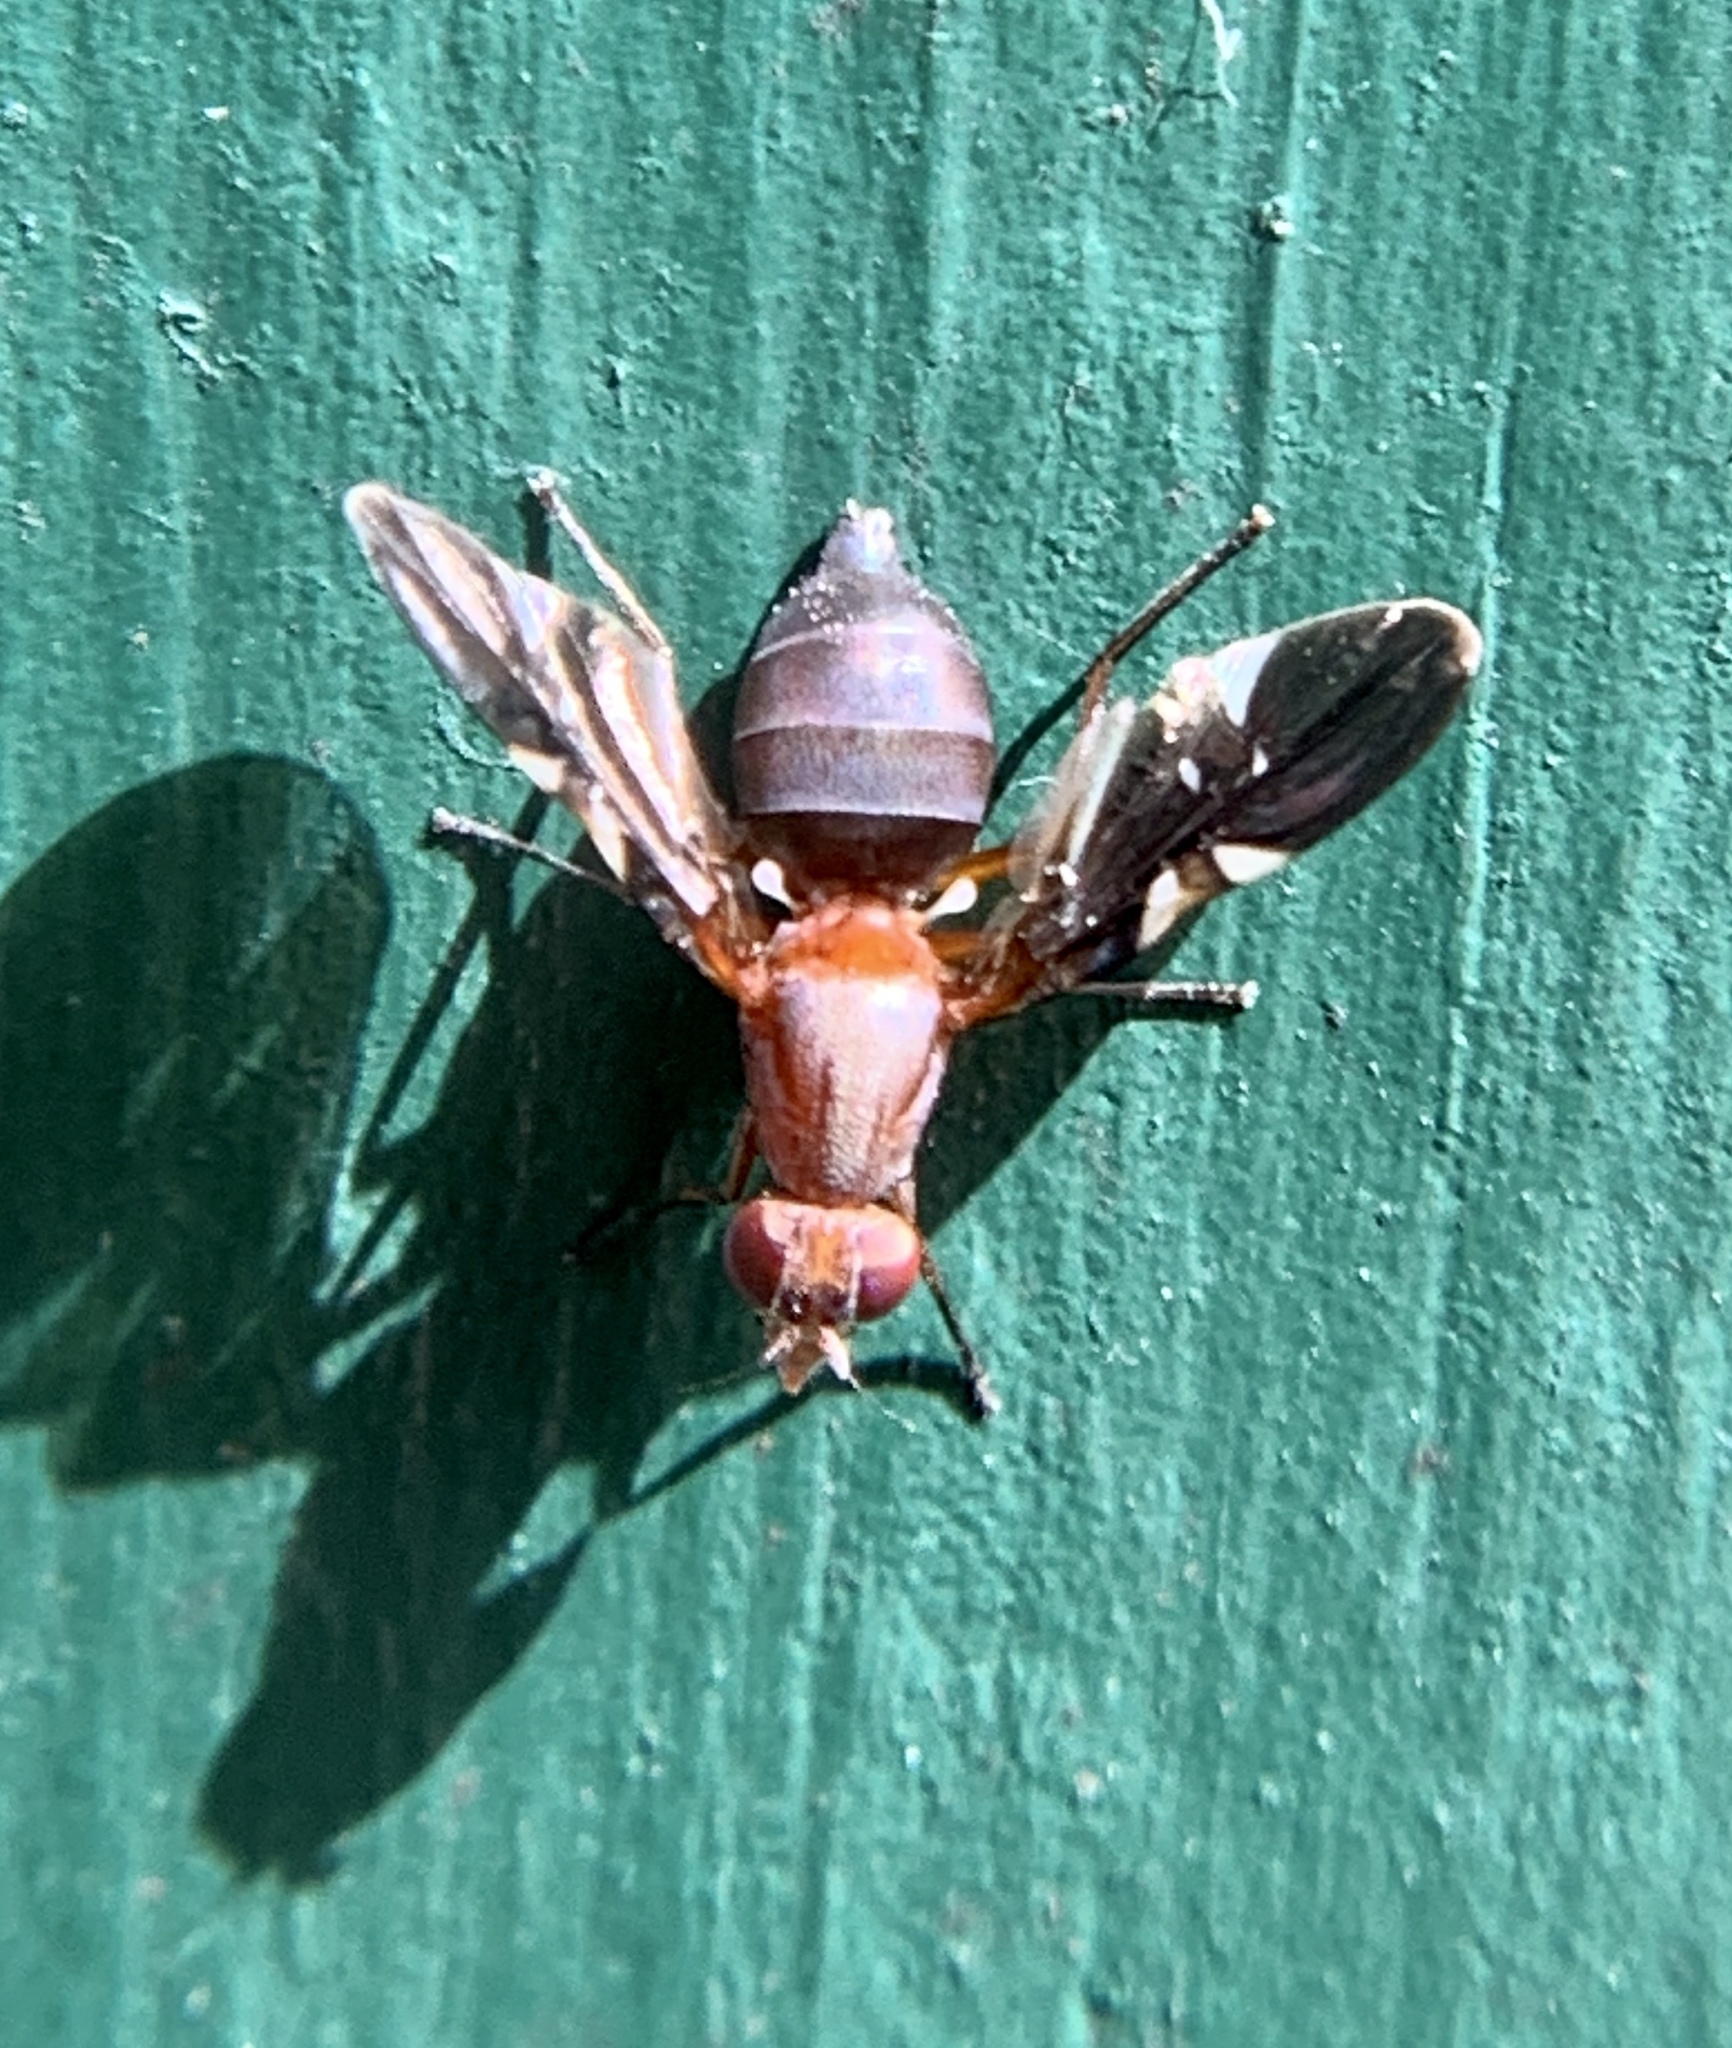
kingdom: Animalia
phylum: Arthropoda
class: Insecta
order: Diptera
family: Ulidiidae
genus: Delphinia
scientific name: Delphinia picta
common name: Common picture-winged fly
